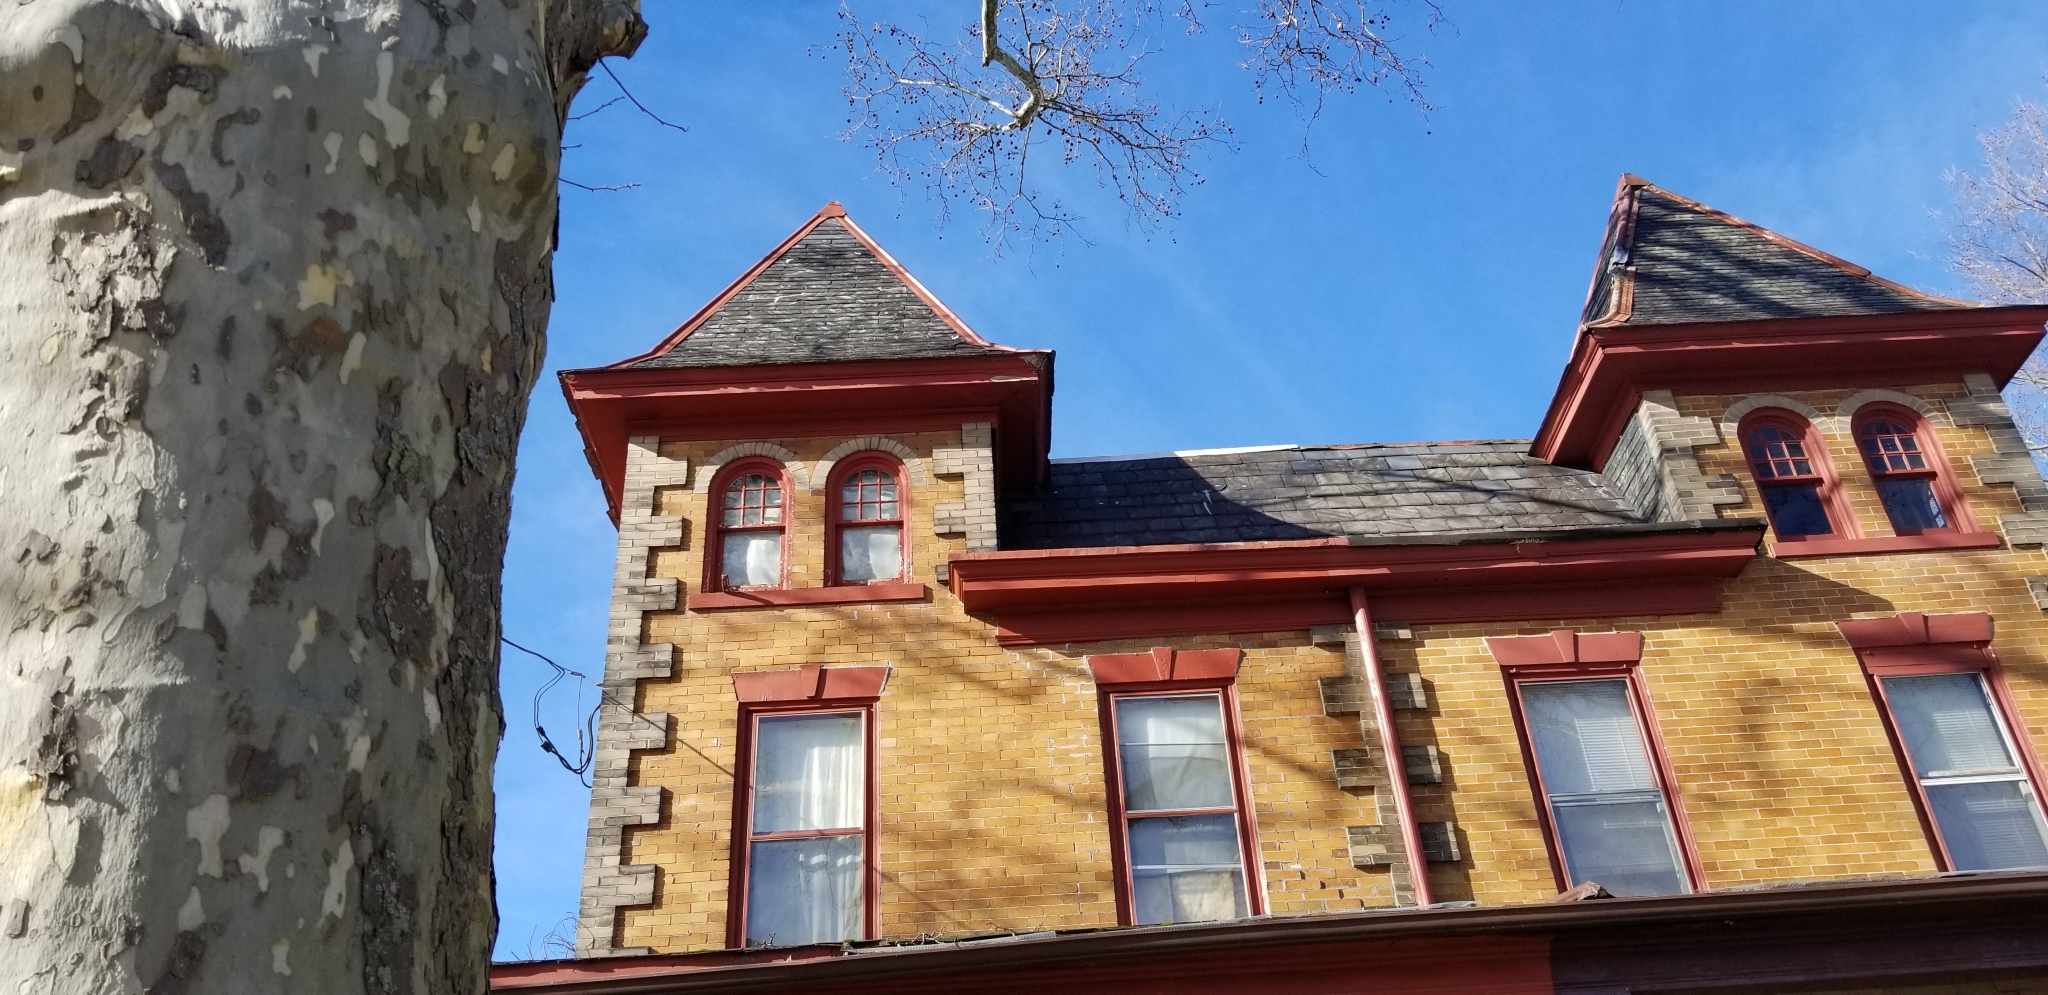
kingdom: Plantae
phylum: Tracheophyta
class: Magnoliopsida
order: Proteales
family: Platanaceae
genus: Platanus
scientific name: Platanus occidentalis
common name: American sycamore
